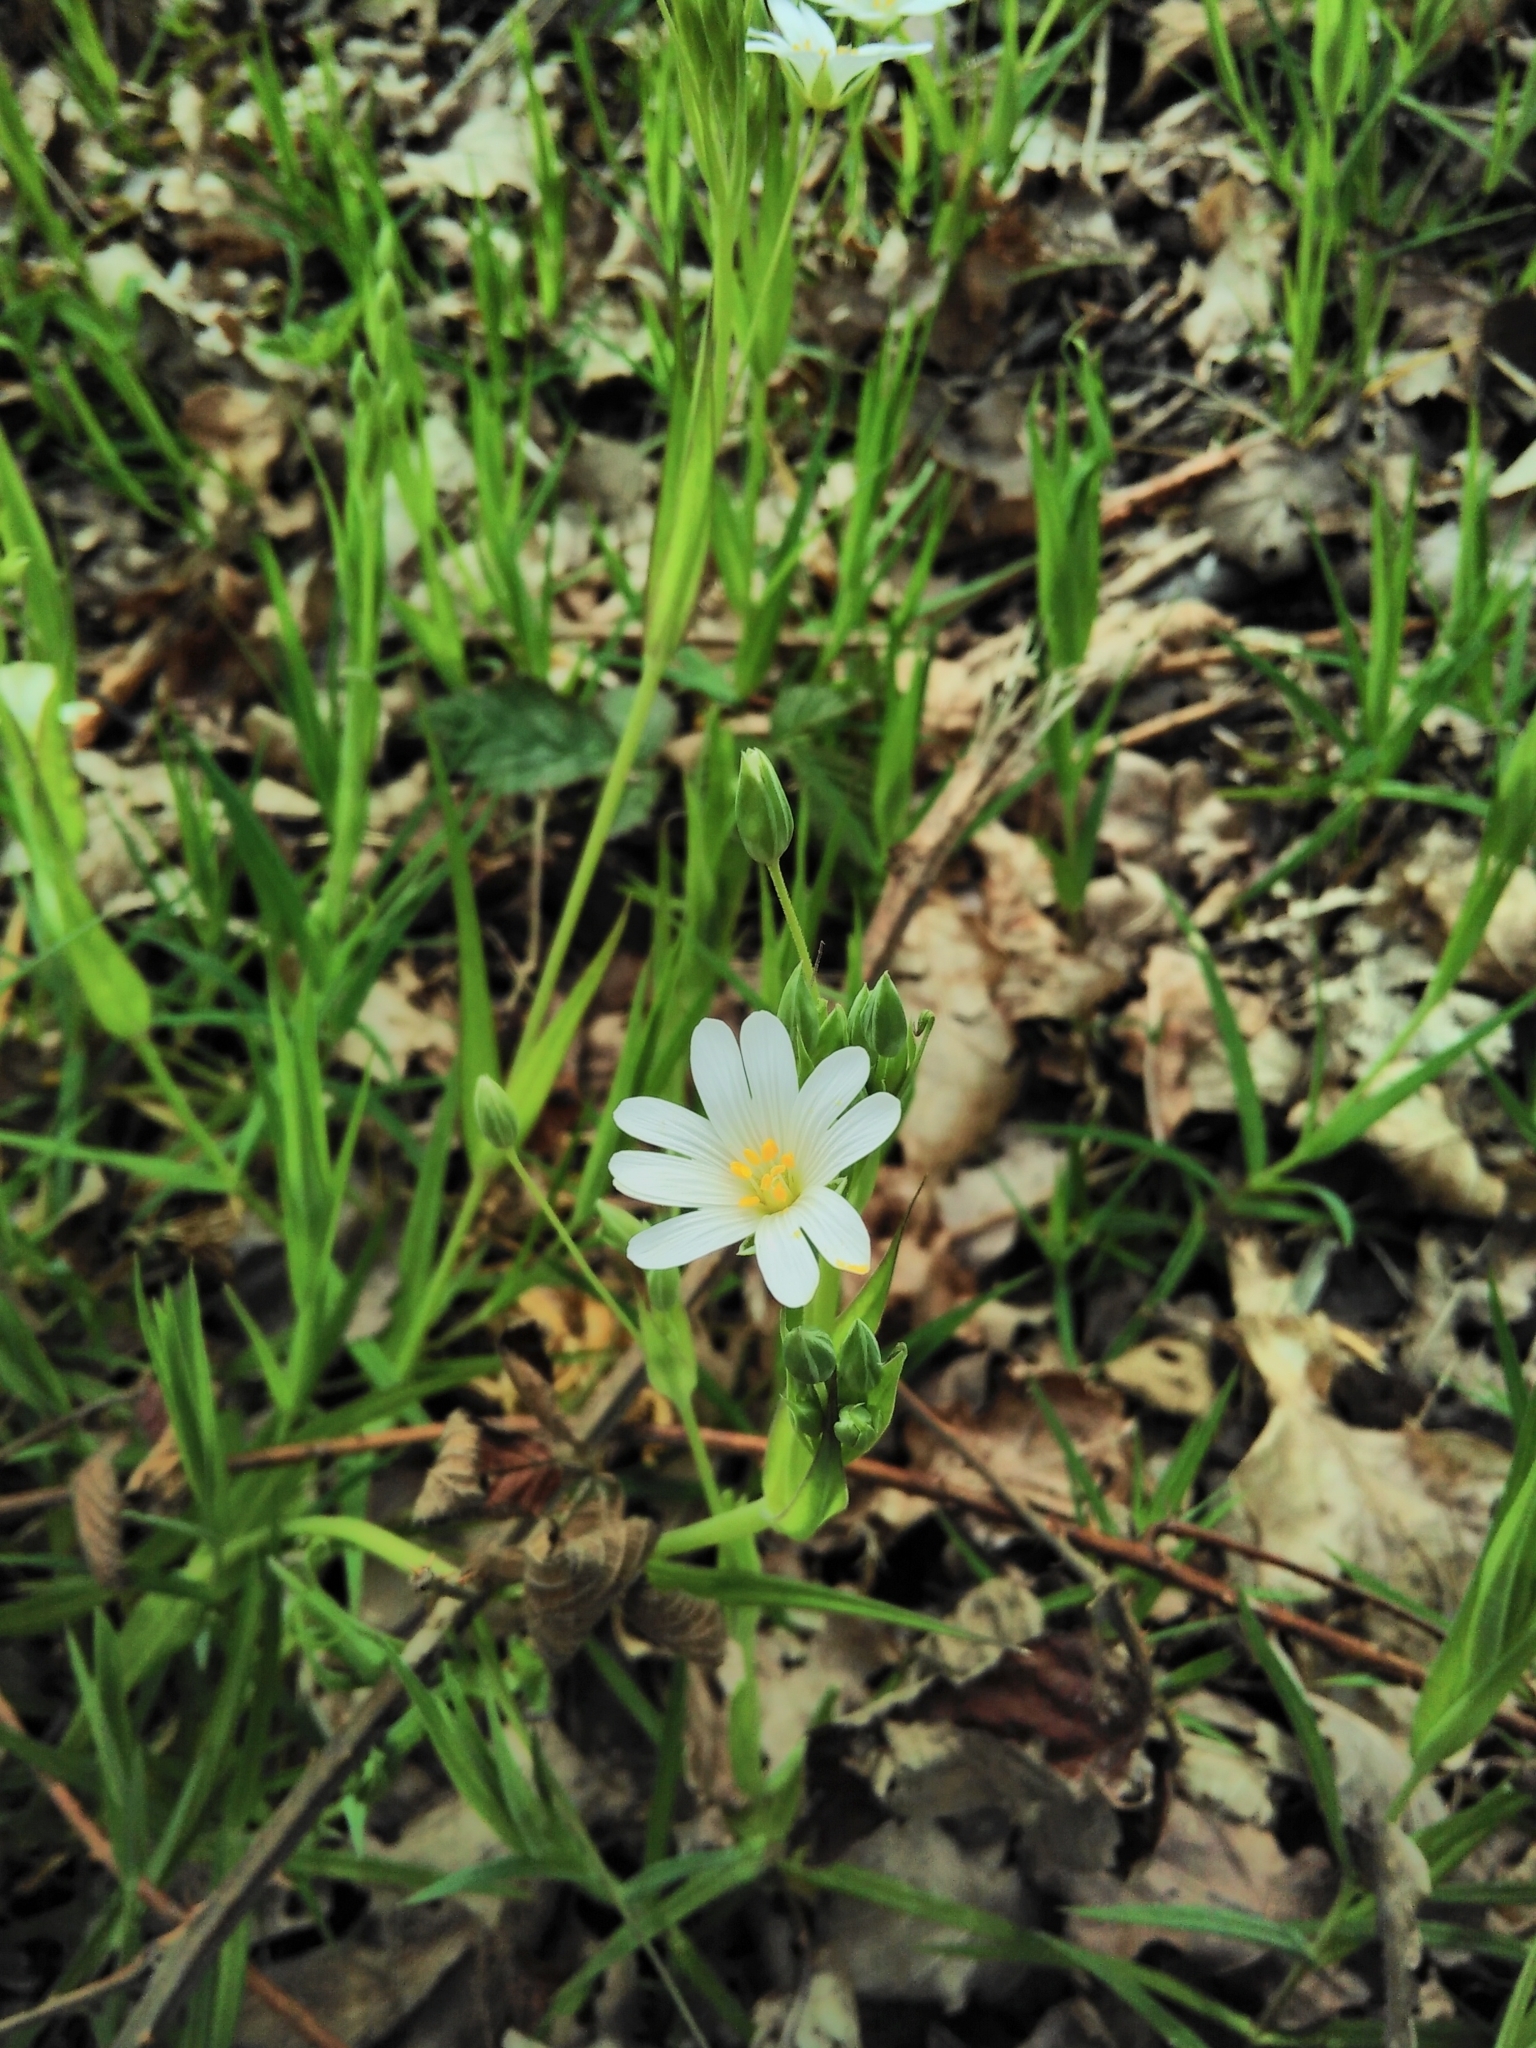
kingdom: Plantae
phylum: Tracheophyta
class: Magnoliopsida
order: Caryophyllales
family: Caryophyllaceae
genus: Rabelera
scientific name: Rabelera holostea
